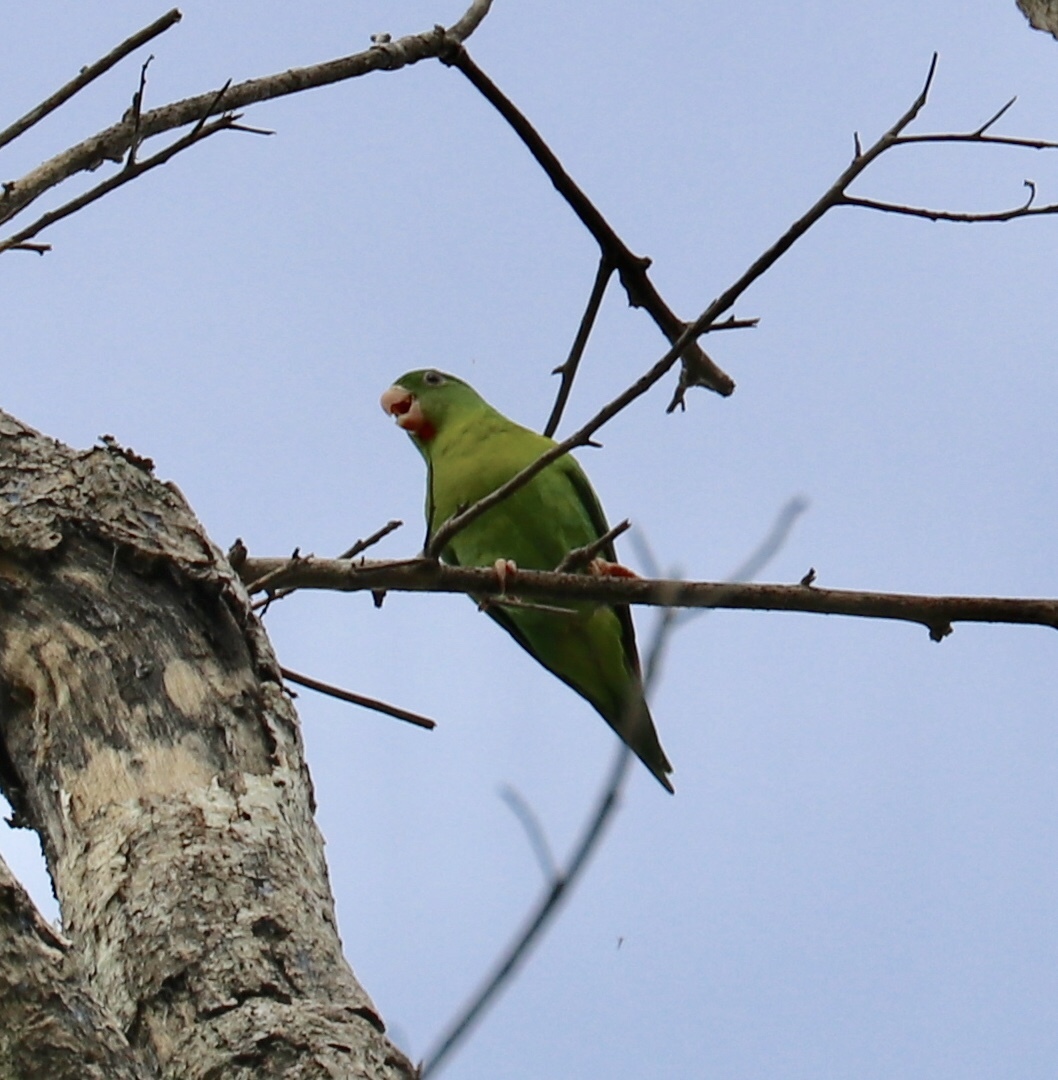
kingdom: Animalia
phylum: Chordata
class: Aves
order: Psittaciformes
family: Psittacidae
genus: Brotogeris
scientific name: Brotogeris jugularis
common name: Orange-chinned parakeet
